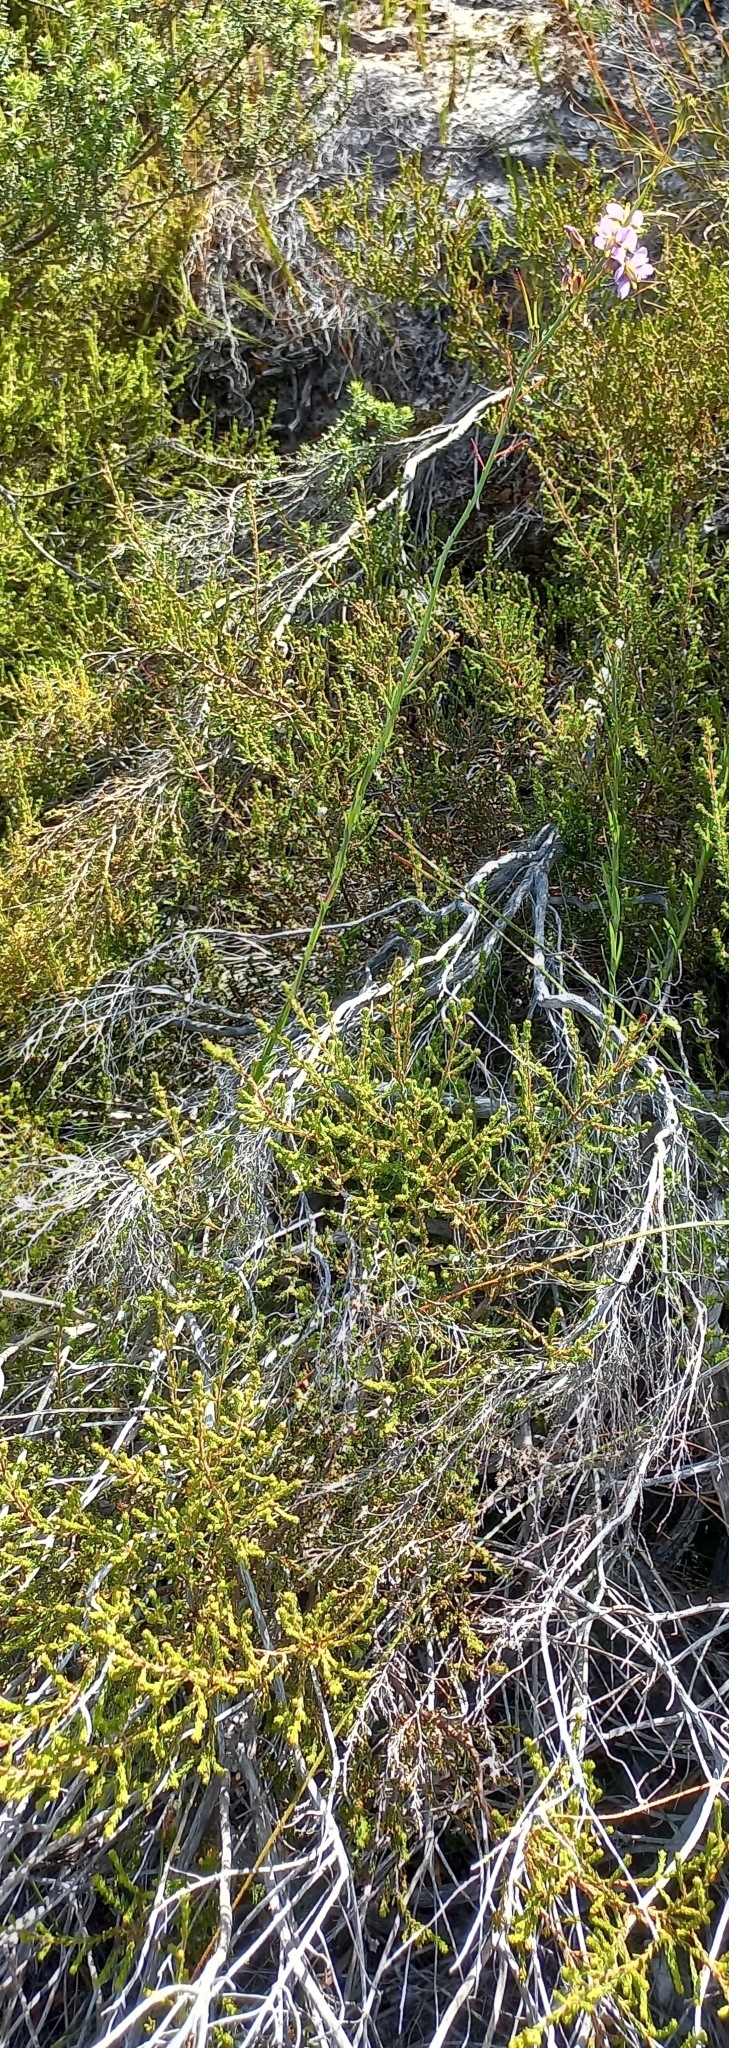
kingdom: Plantae
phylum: Tracheophyta
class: Magnoliopsida
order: Brassicales
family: Brassicaceae
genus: Heliophila
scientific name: Heliophila linearis
